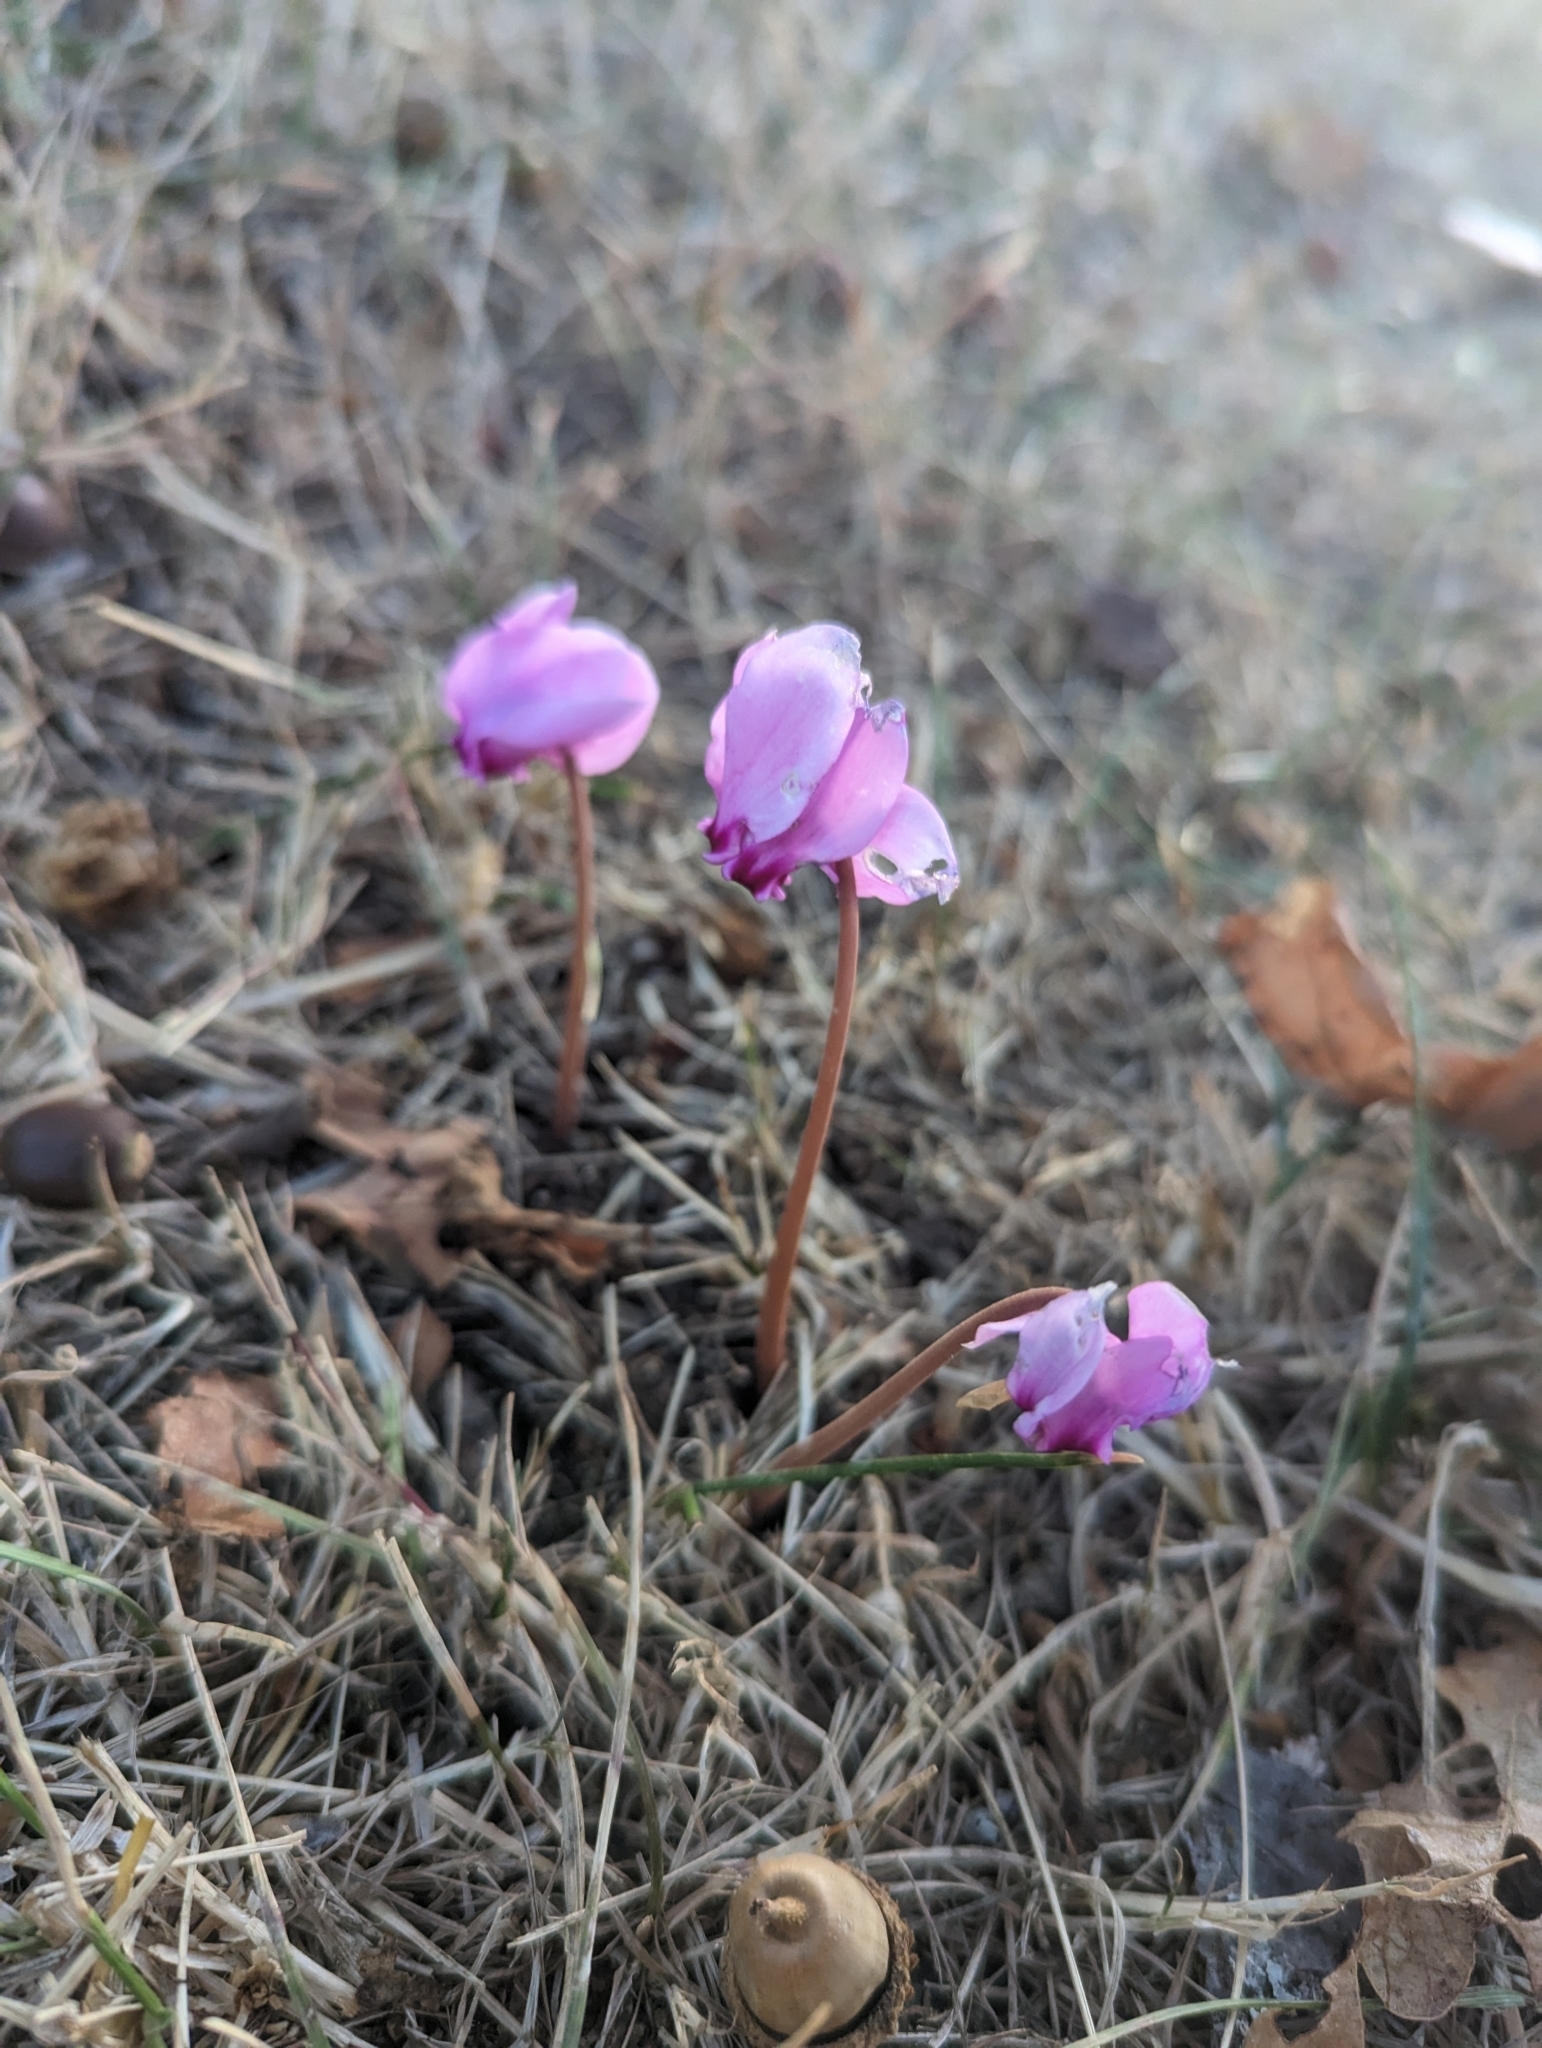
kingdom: Plantae
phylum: Tracheophyta
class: Magnoliopsida
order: Ericales
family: Primulaceae
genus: Cyclamen
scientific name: Cyclamen hederifolium
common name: Sowbread
